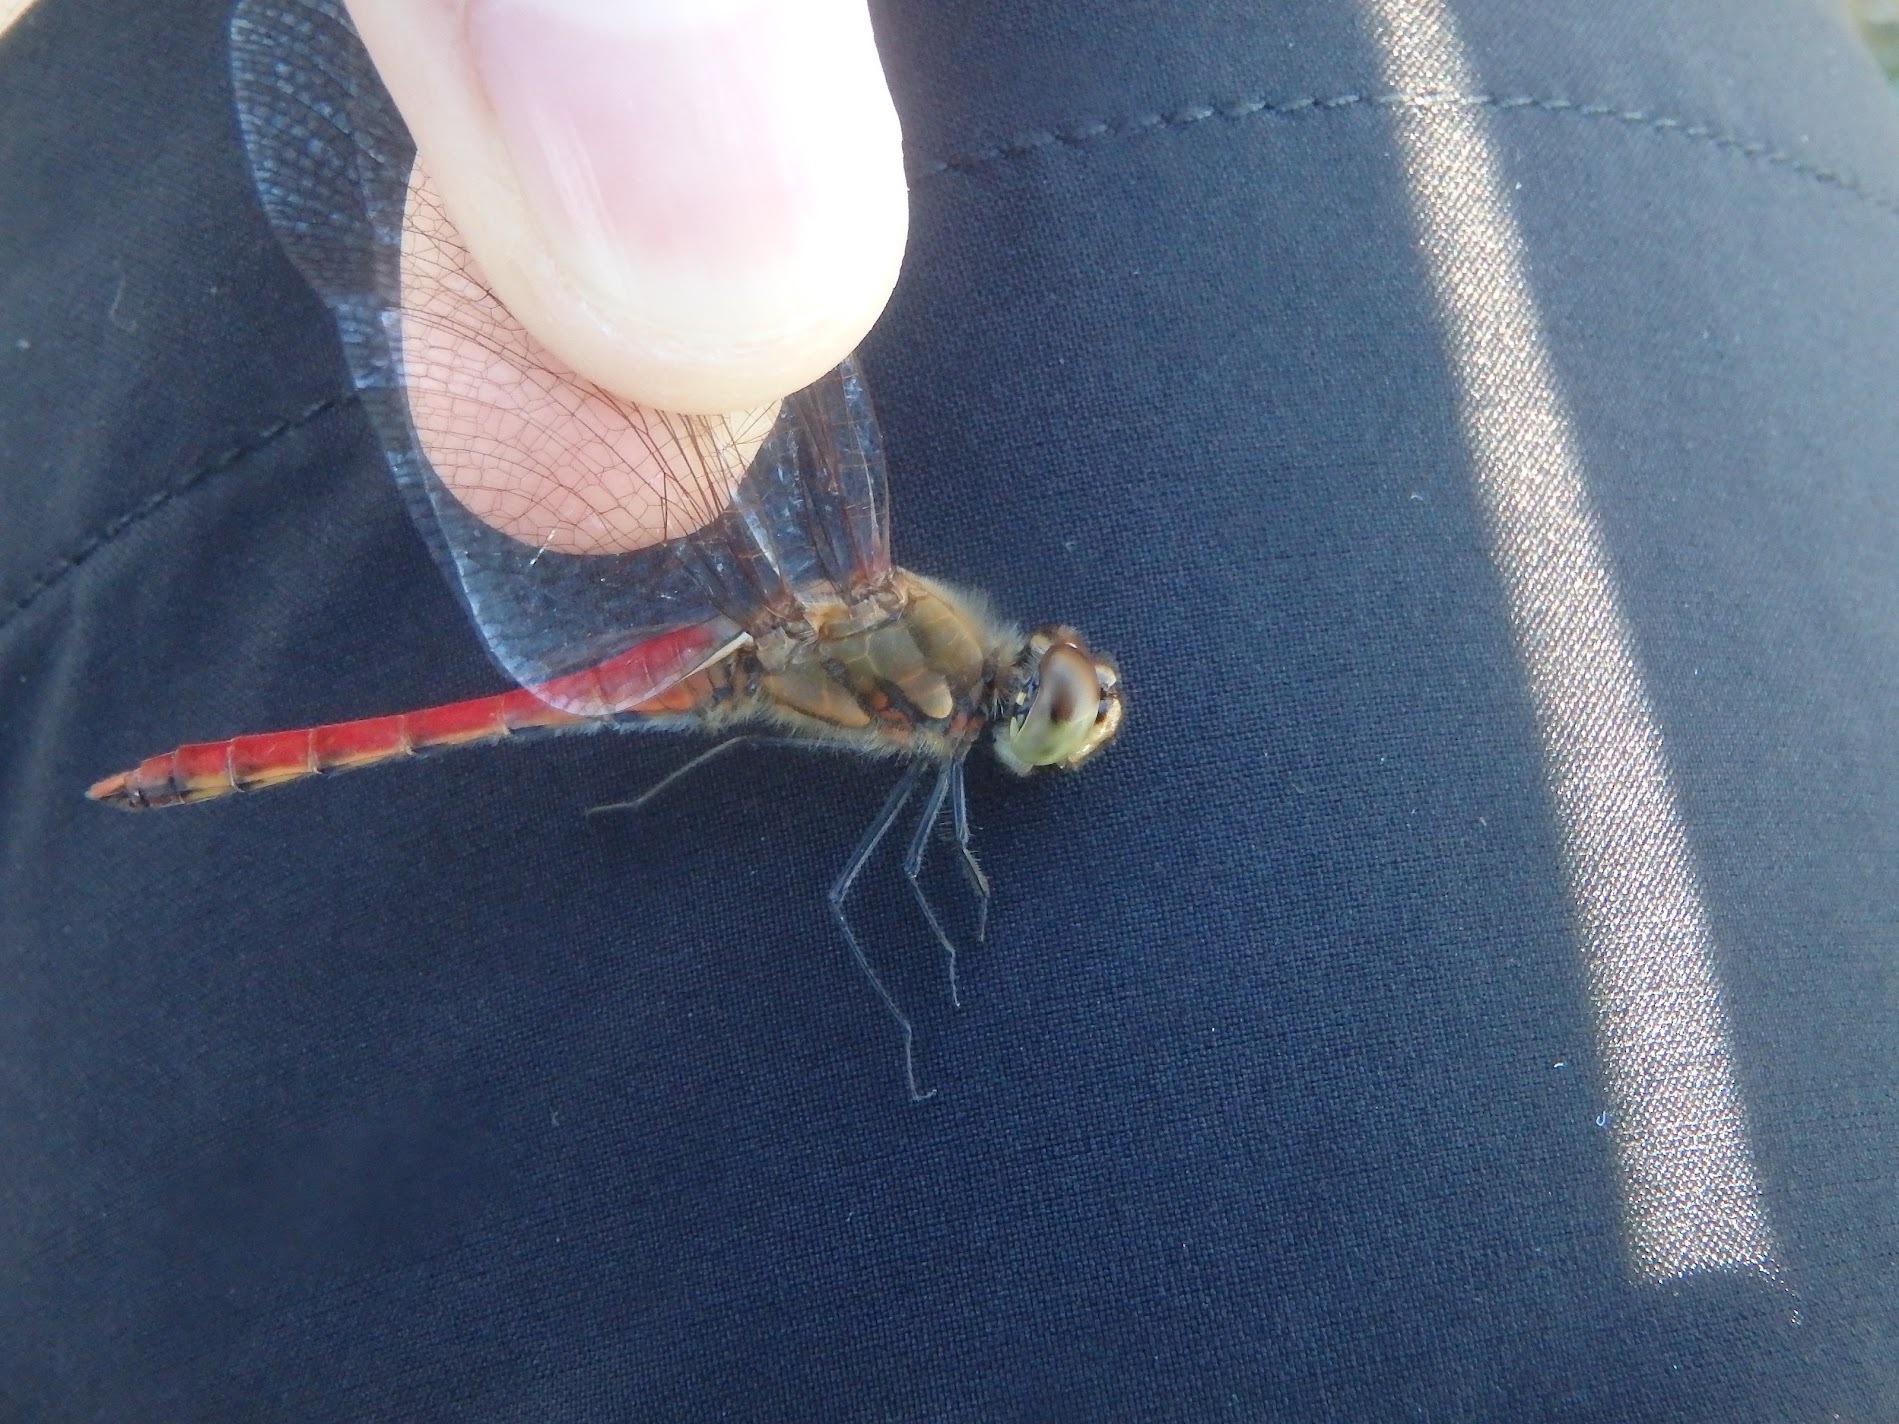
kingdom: Animalia
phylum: Arthropoda
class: Insecta
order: Odonata
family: Libellulidae
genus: Sympetrum
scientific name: Sympetrum frequens
